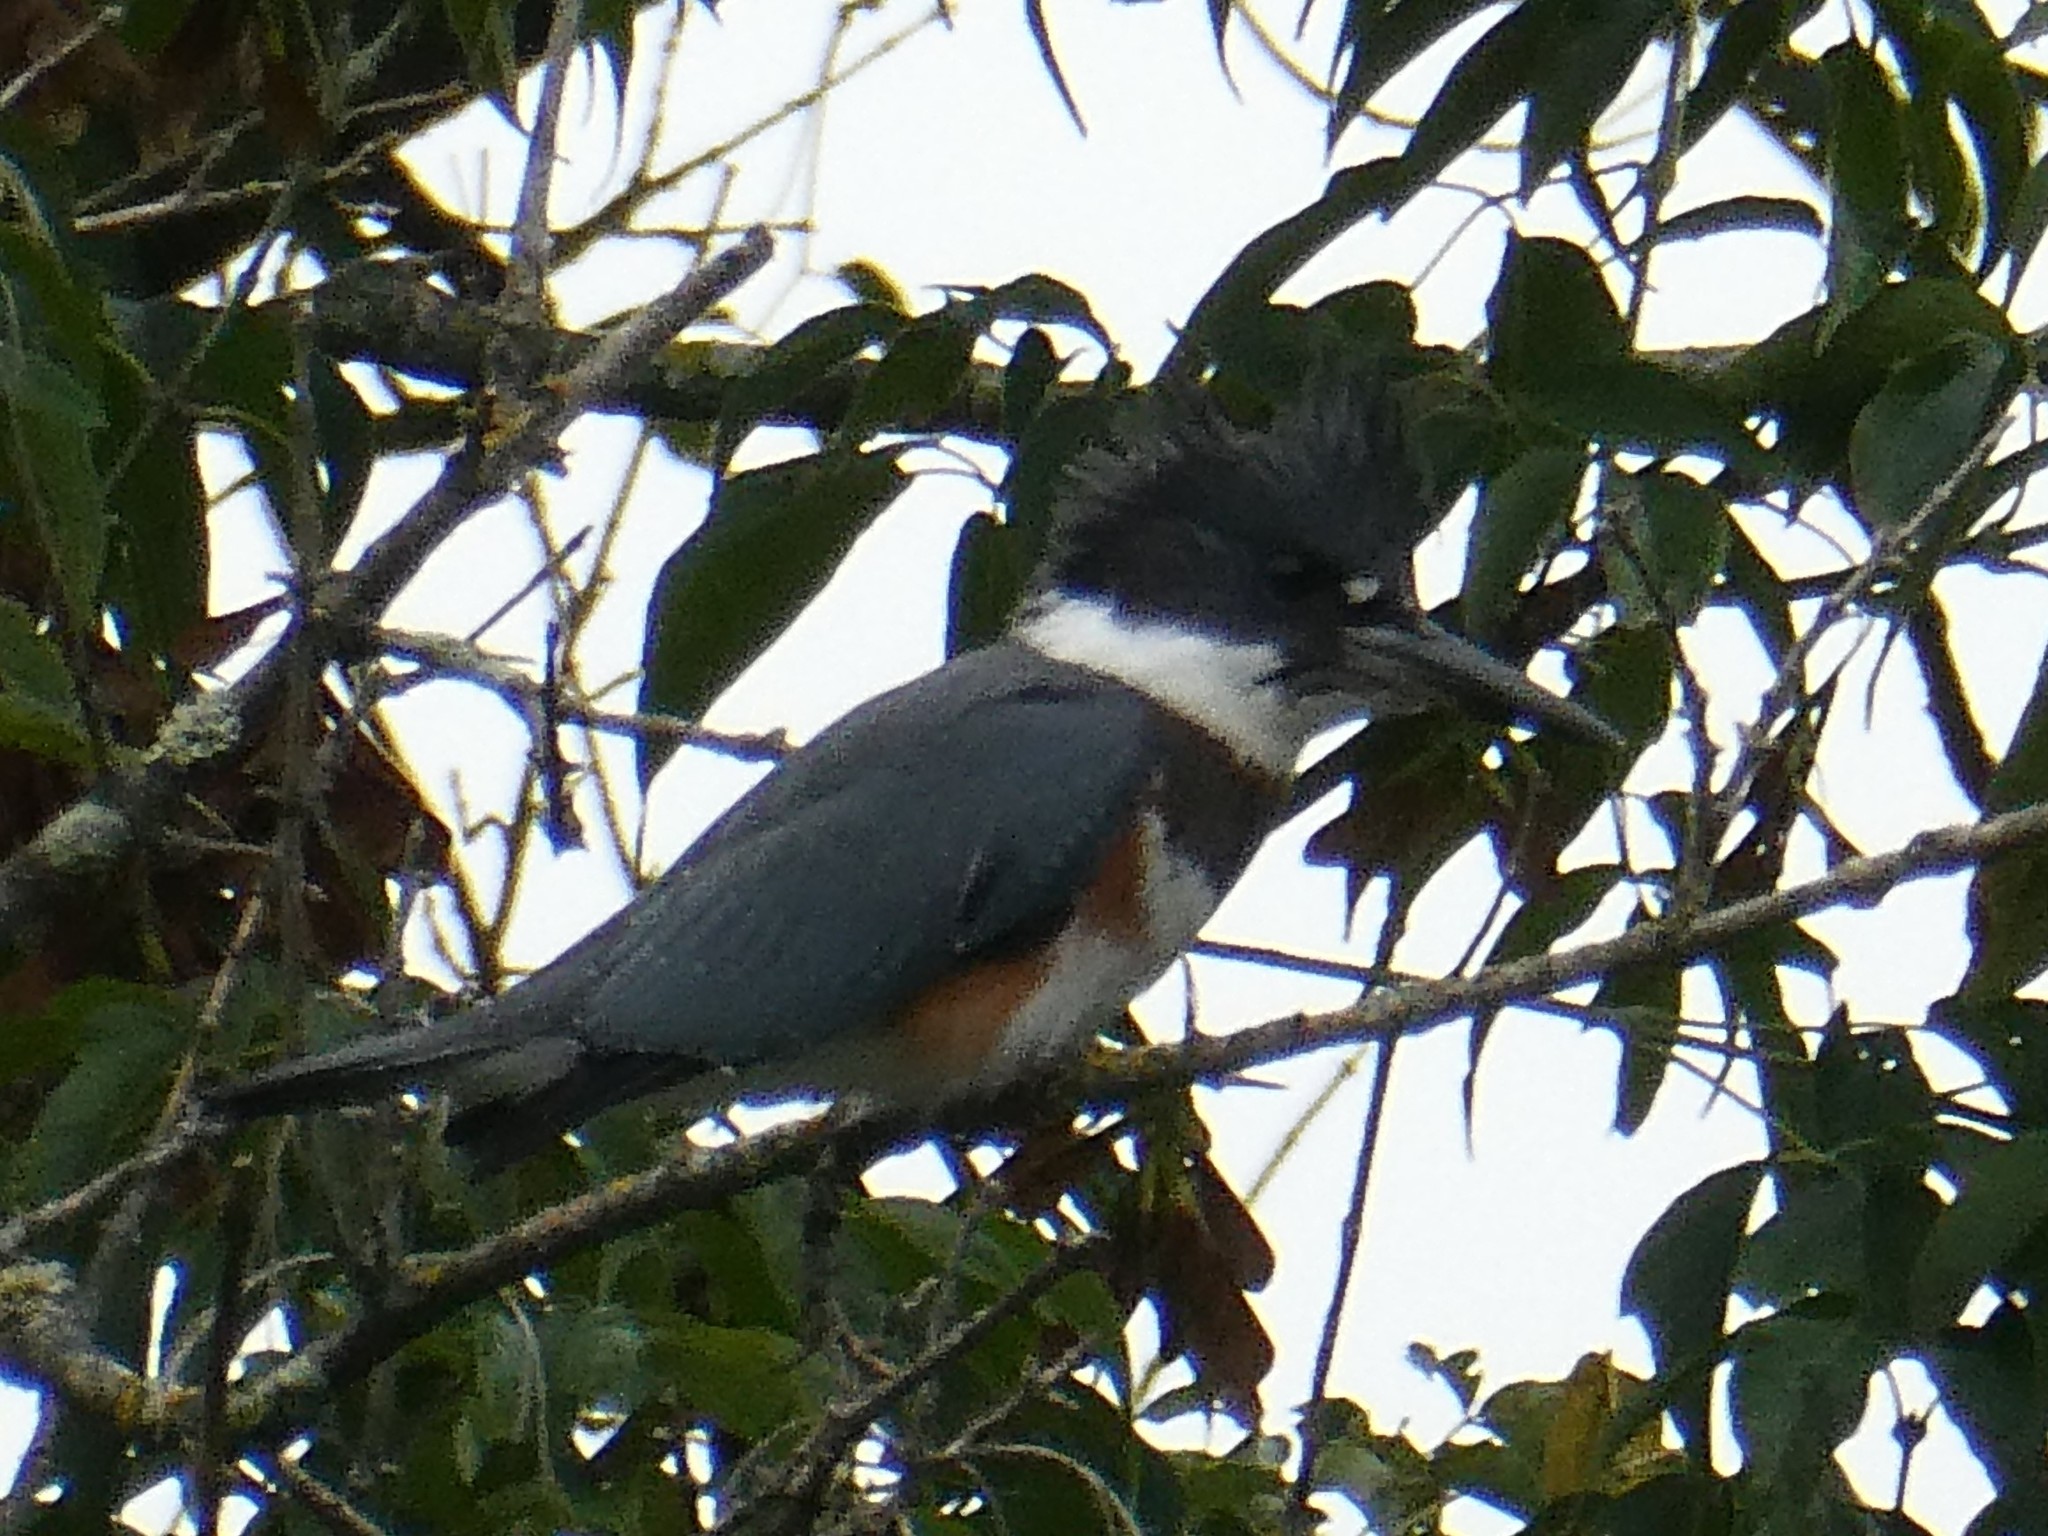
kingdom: Animalia
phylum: Chordata
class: Aves
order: Coraciiformes
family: Alcedinidae
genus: Megaceryle
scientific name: Megaceryle alcyon
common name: Belted kingfisher
